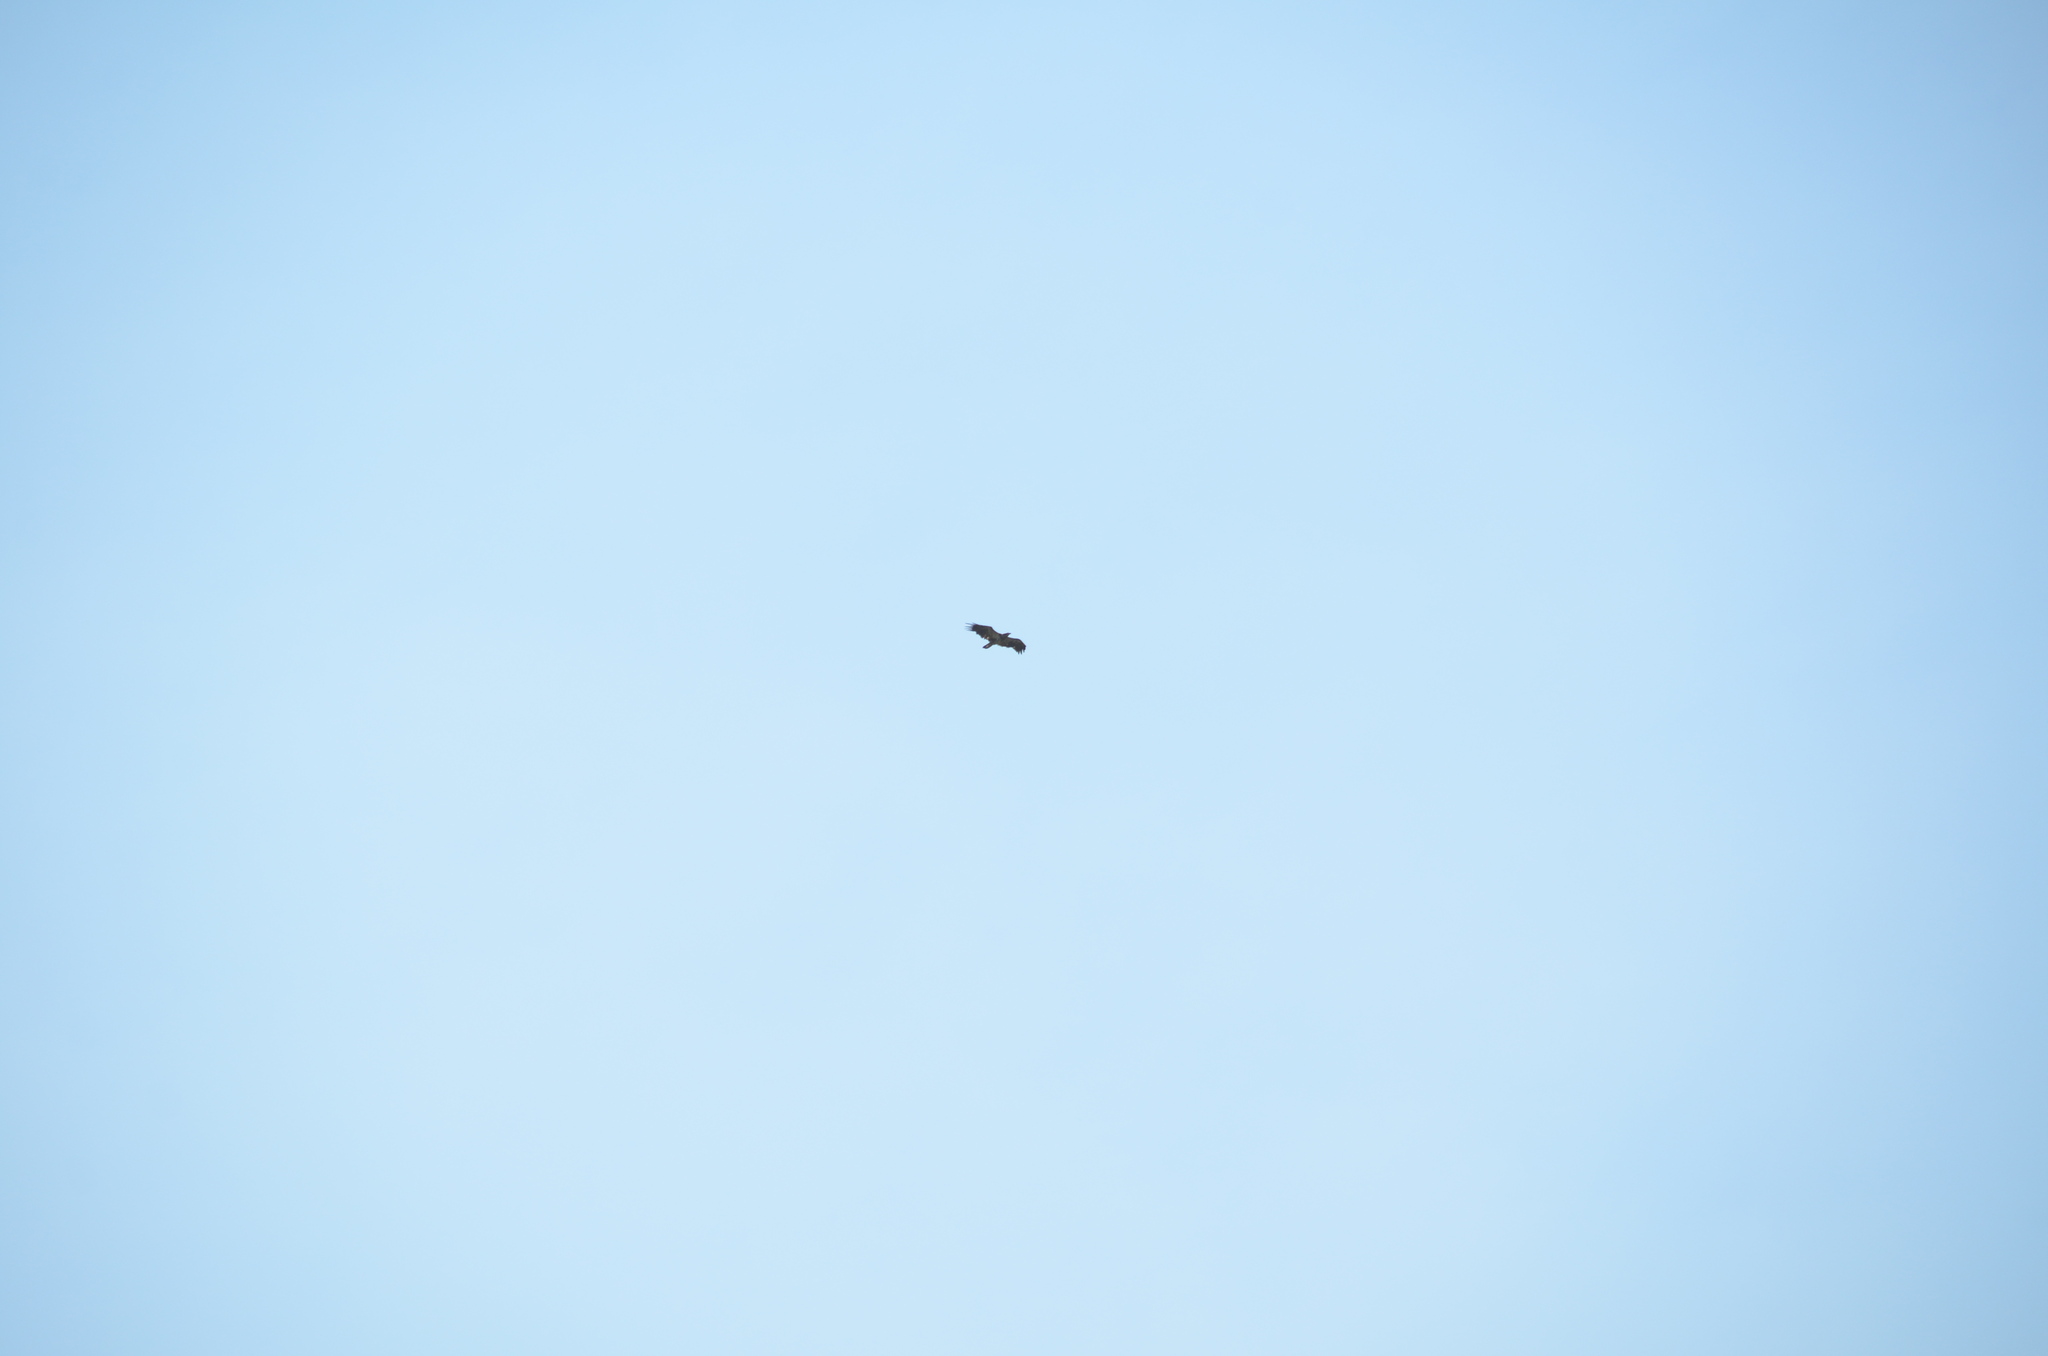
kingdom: Animalia
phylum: Chordata
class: Aves
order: Accipitriformes
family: Accipitridae
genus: Haliaeetus
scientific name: Haliaeetus leucocephalus
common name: Bald eagle
